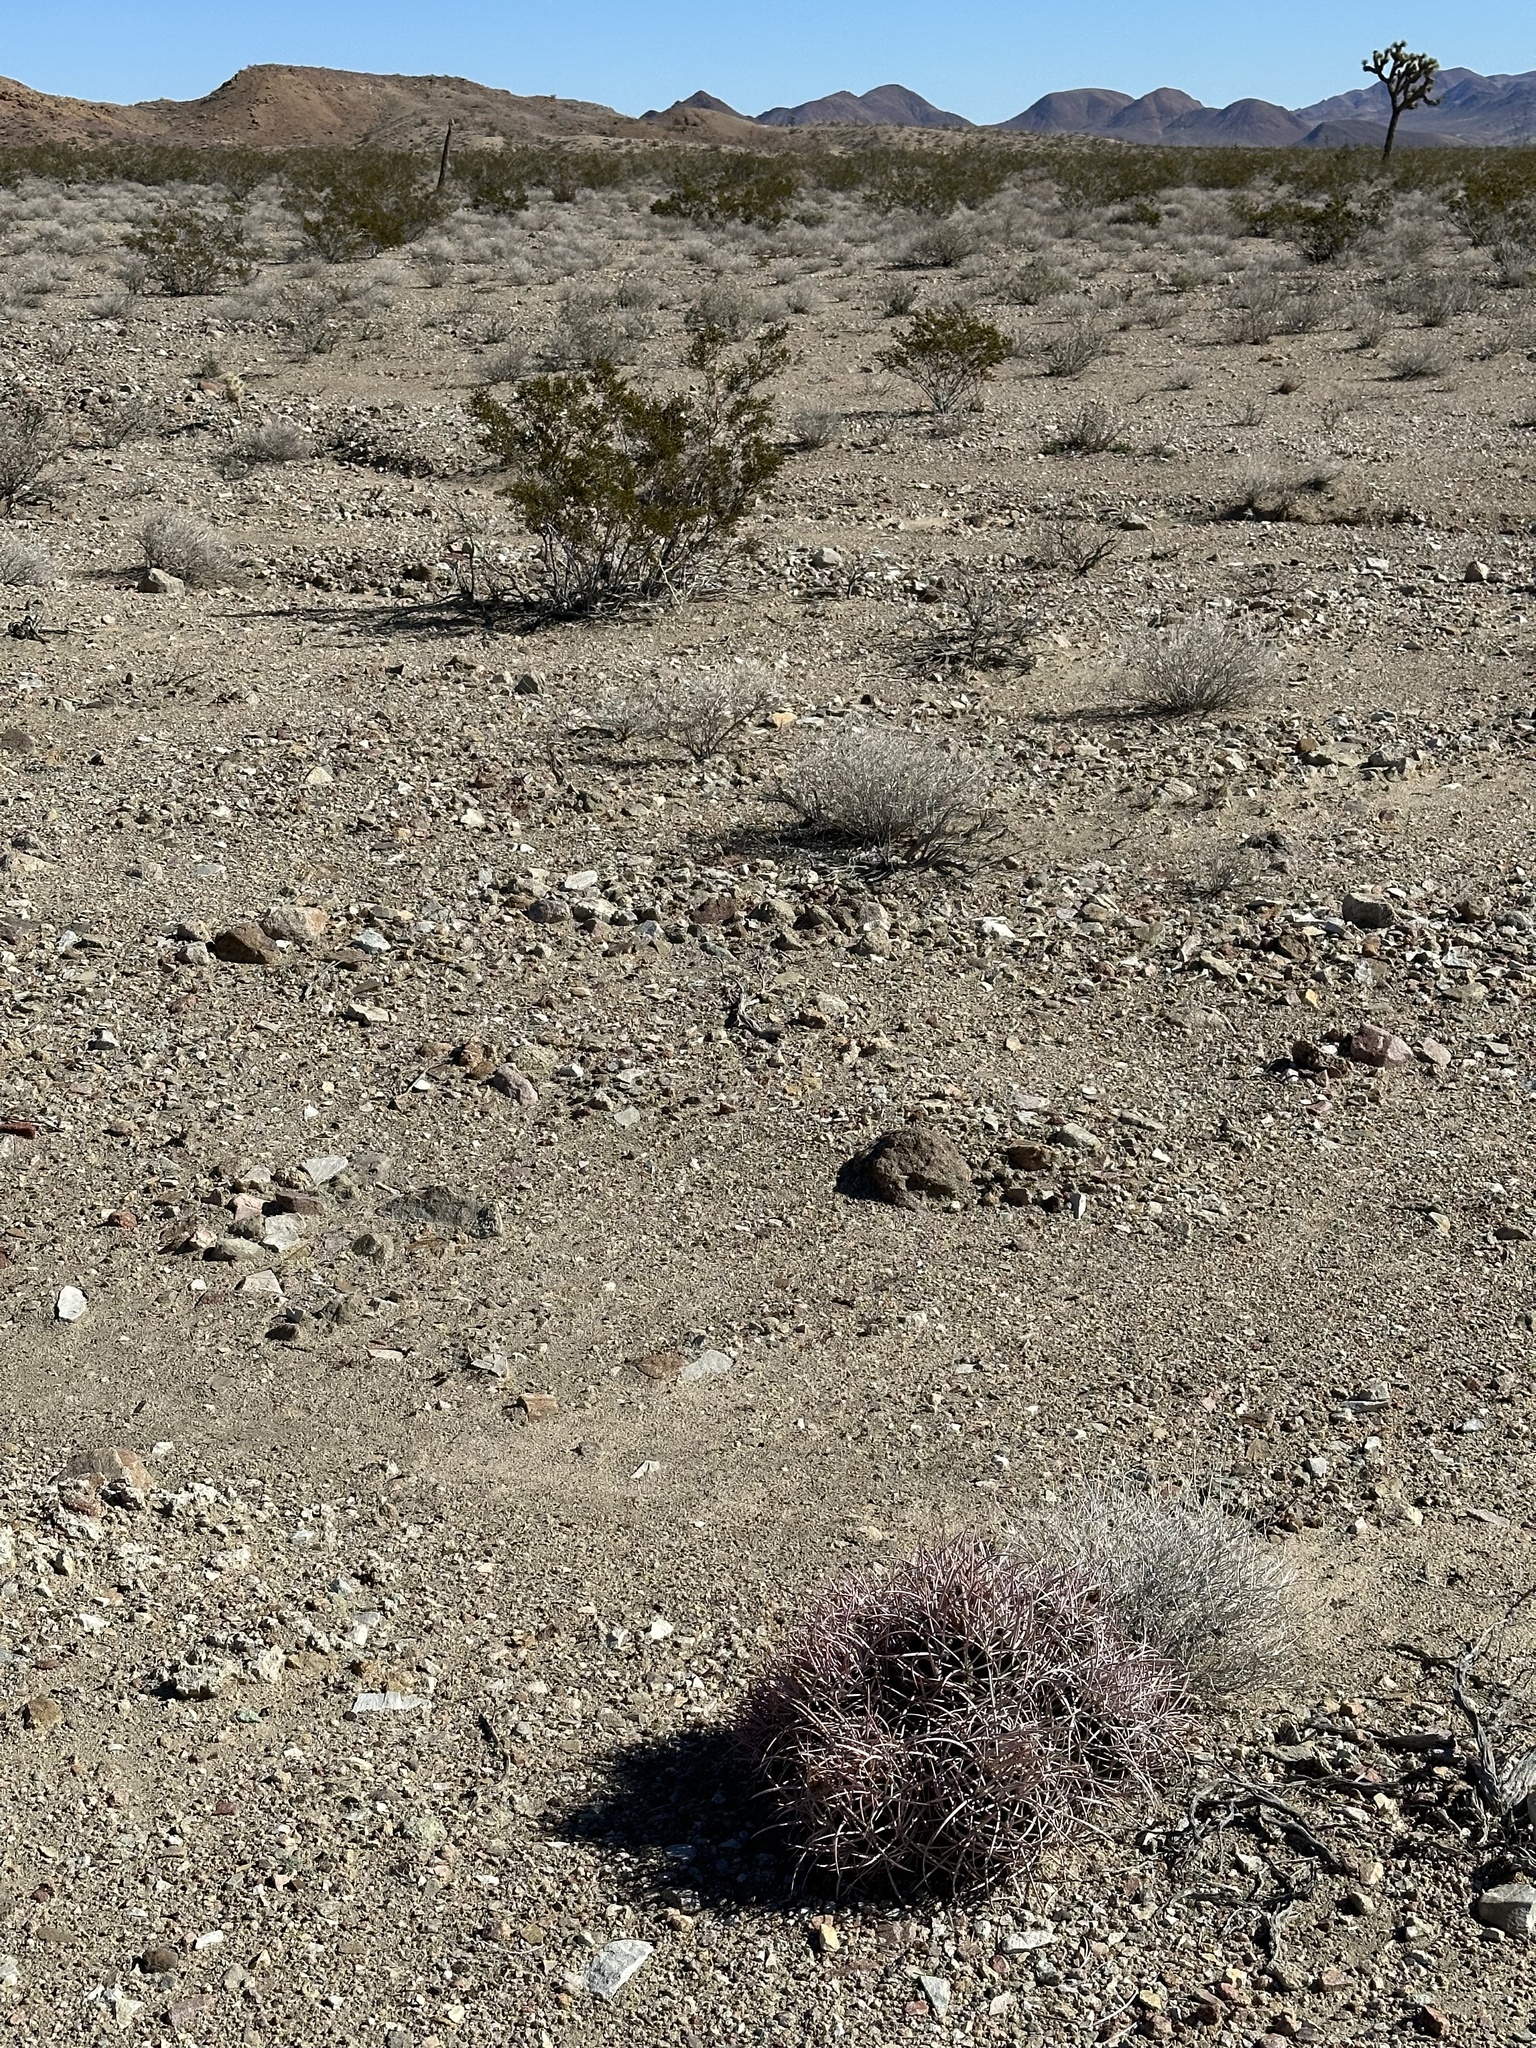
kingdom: Plantae
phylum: Tracheophyta
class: Magnoliopsida
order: Caryophyllales
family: Cactaceae
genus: Echinocactus
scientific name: Echinocactus polycephalus
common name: Cottontop cactus
